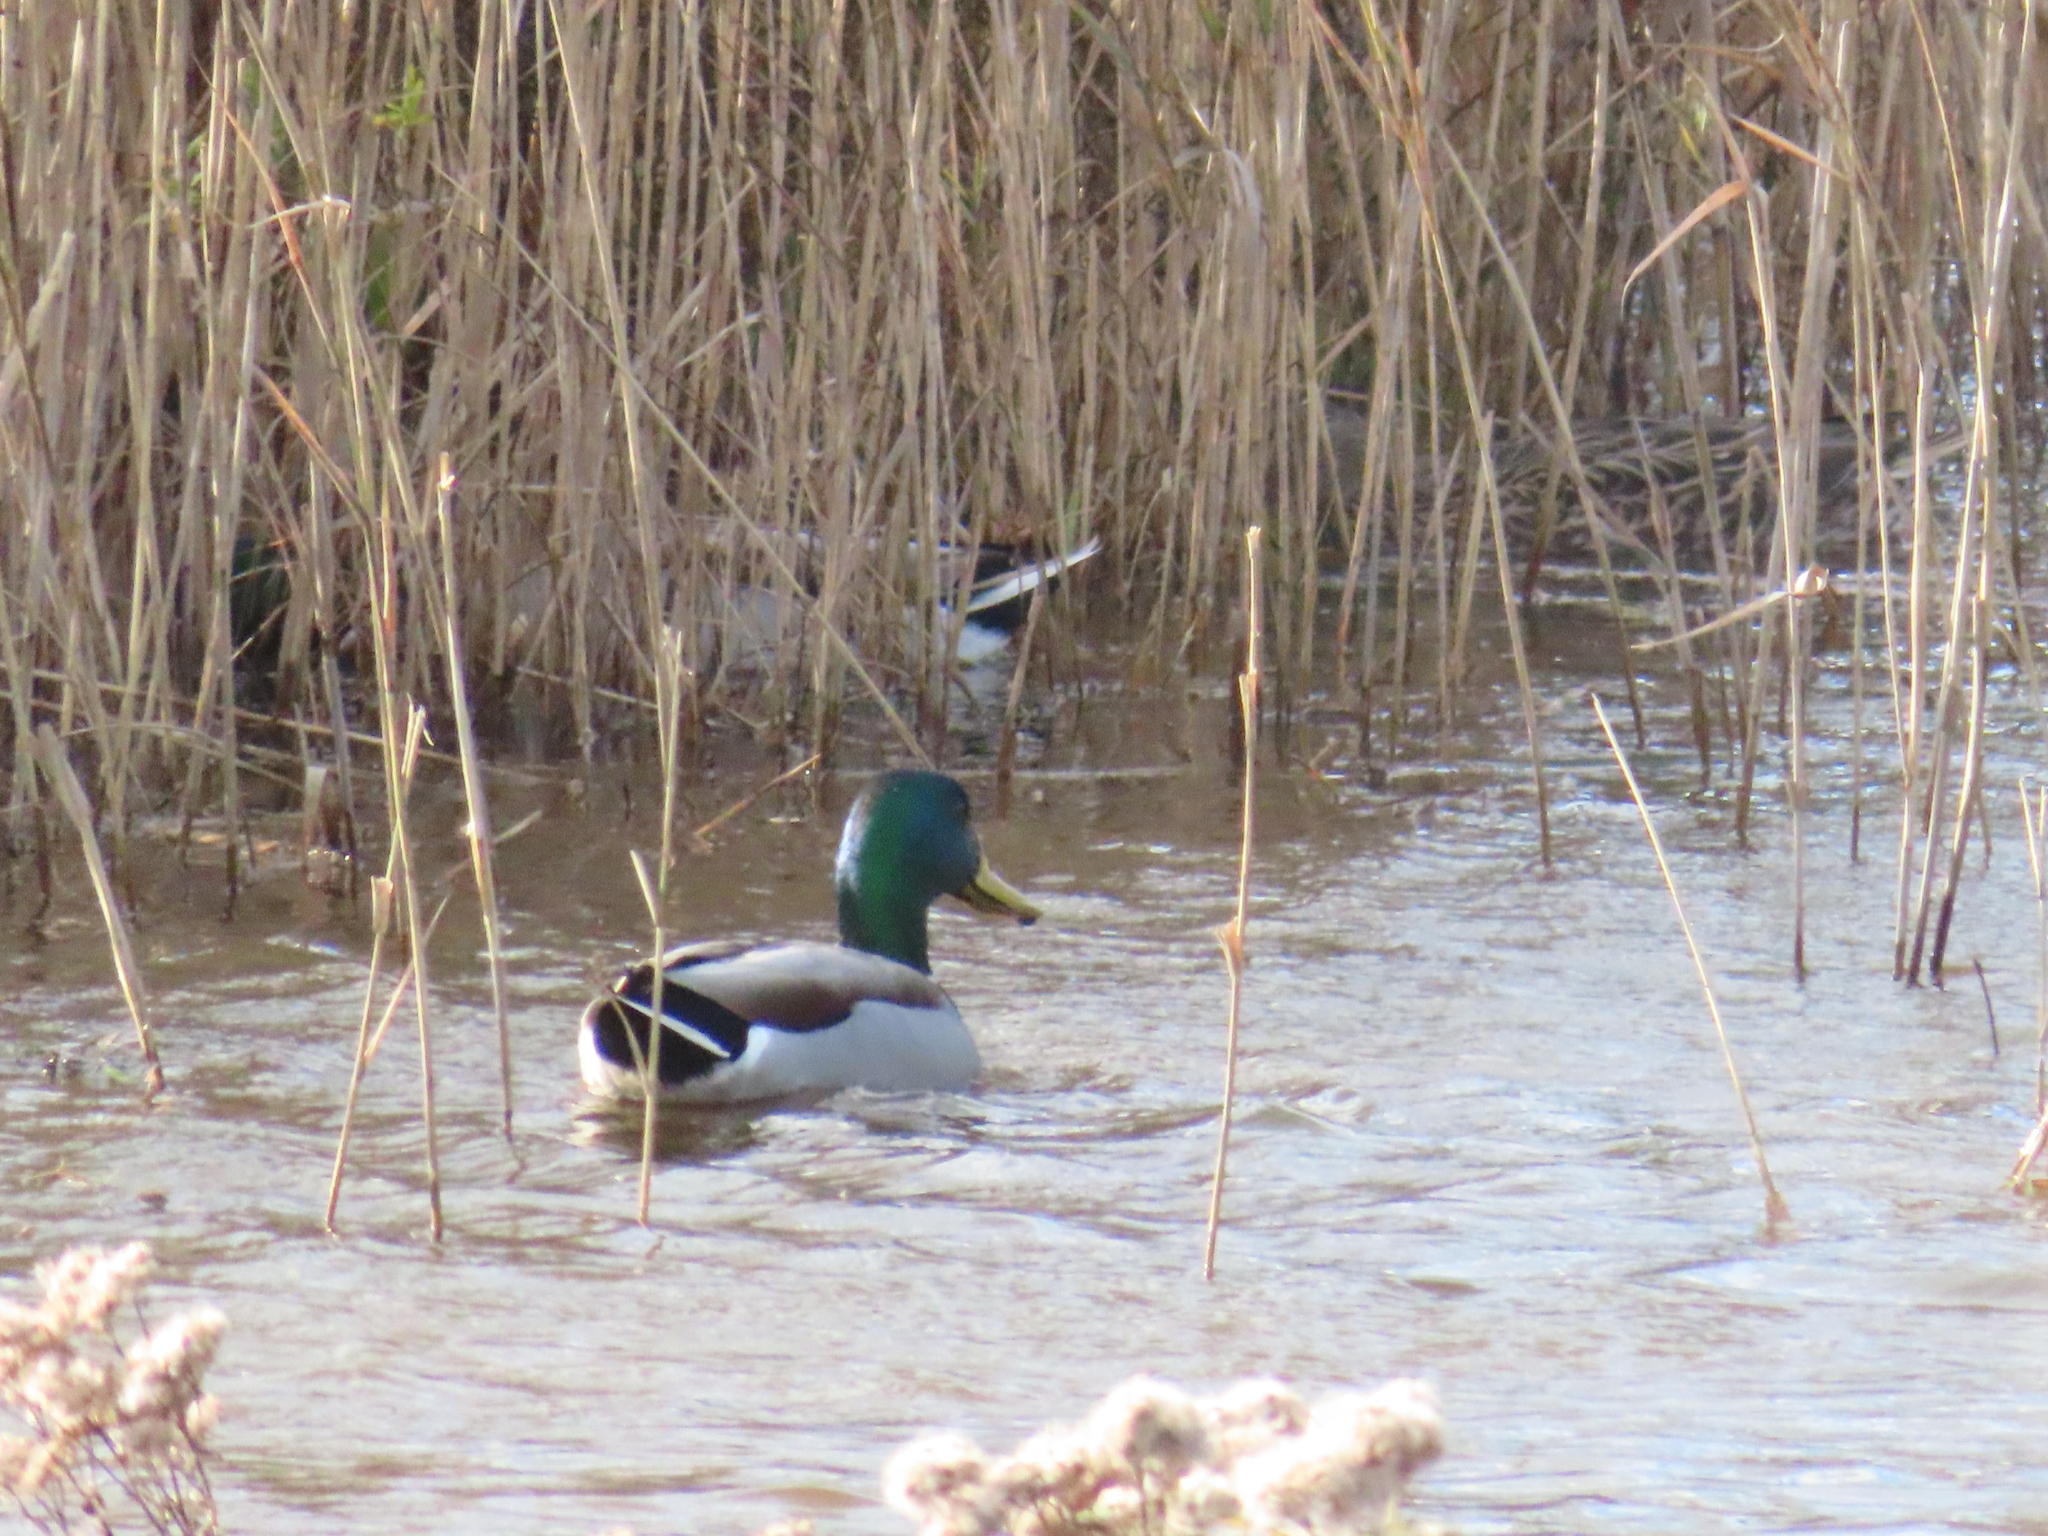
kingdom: Animalia
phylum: Chordata
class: Aves
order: Anseriformes
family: Anatidae
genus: Anas
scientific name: Anas platyrhynchos
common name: Mallard
